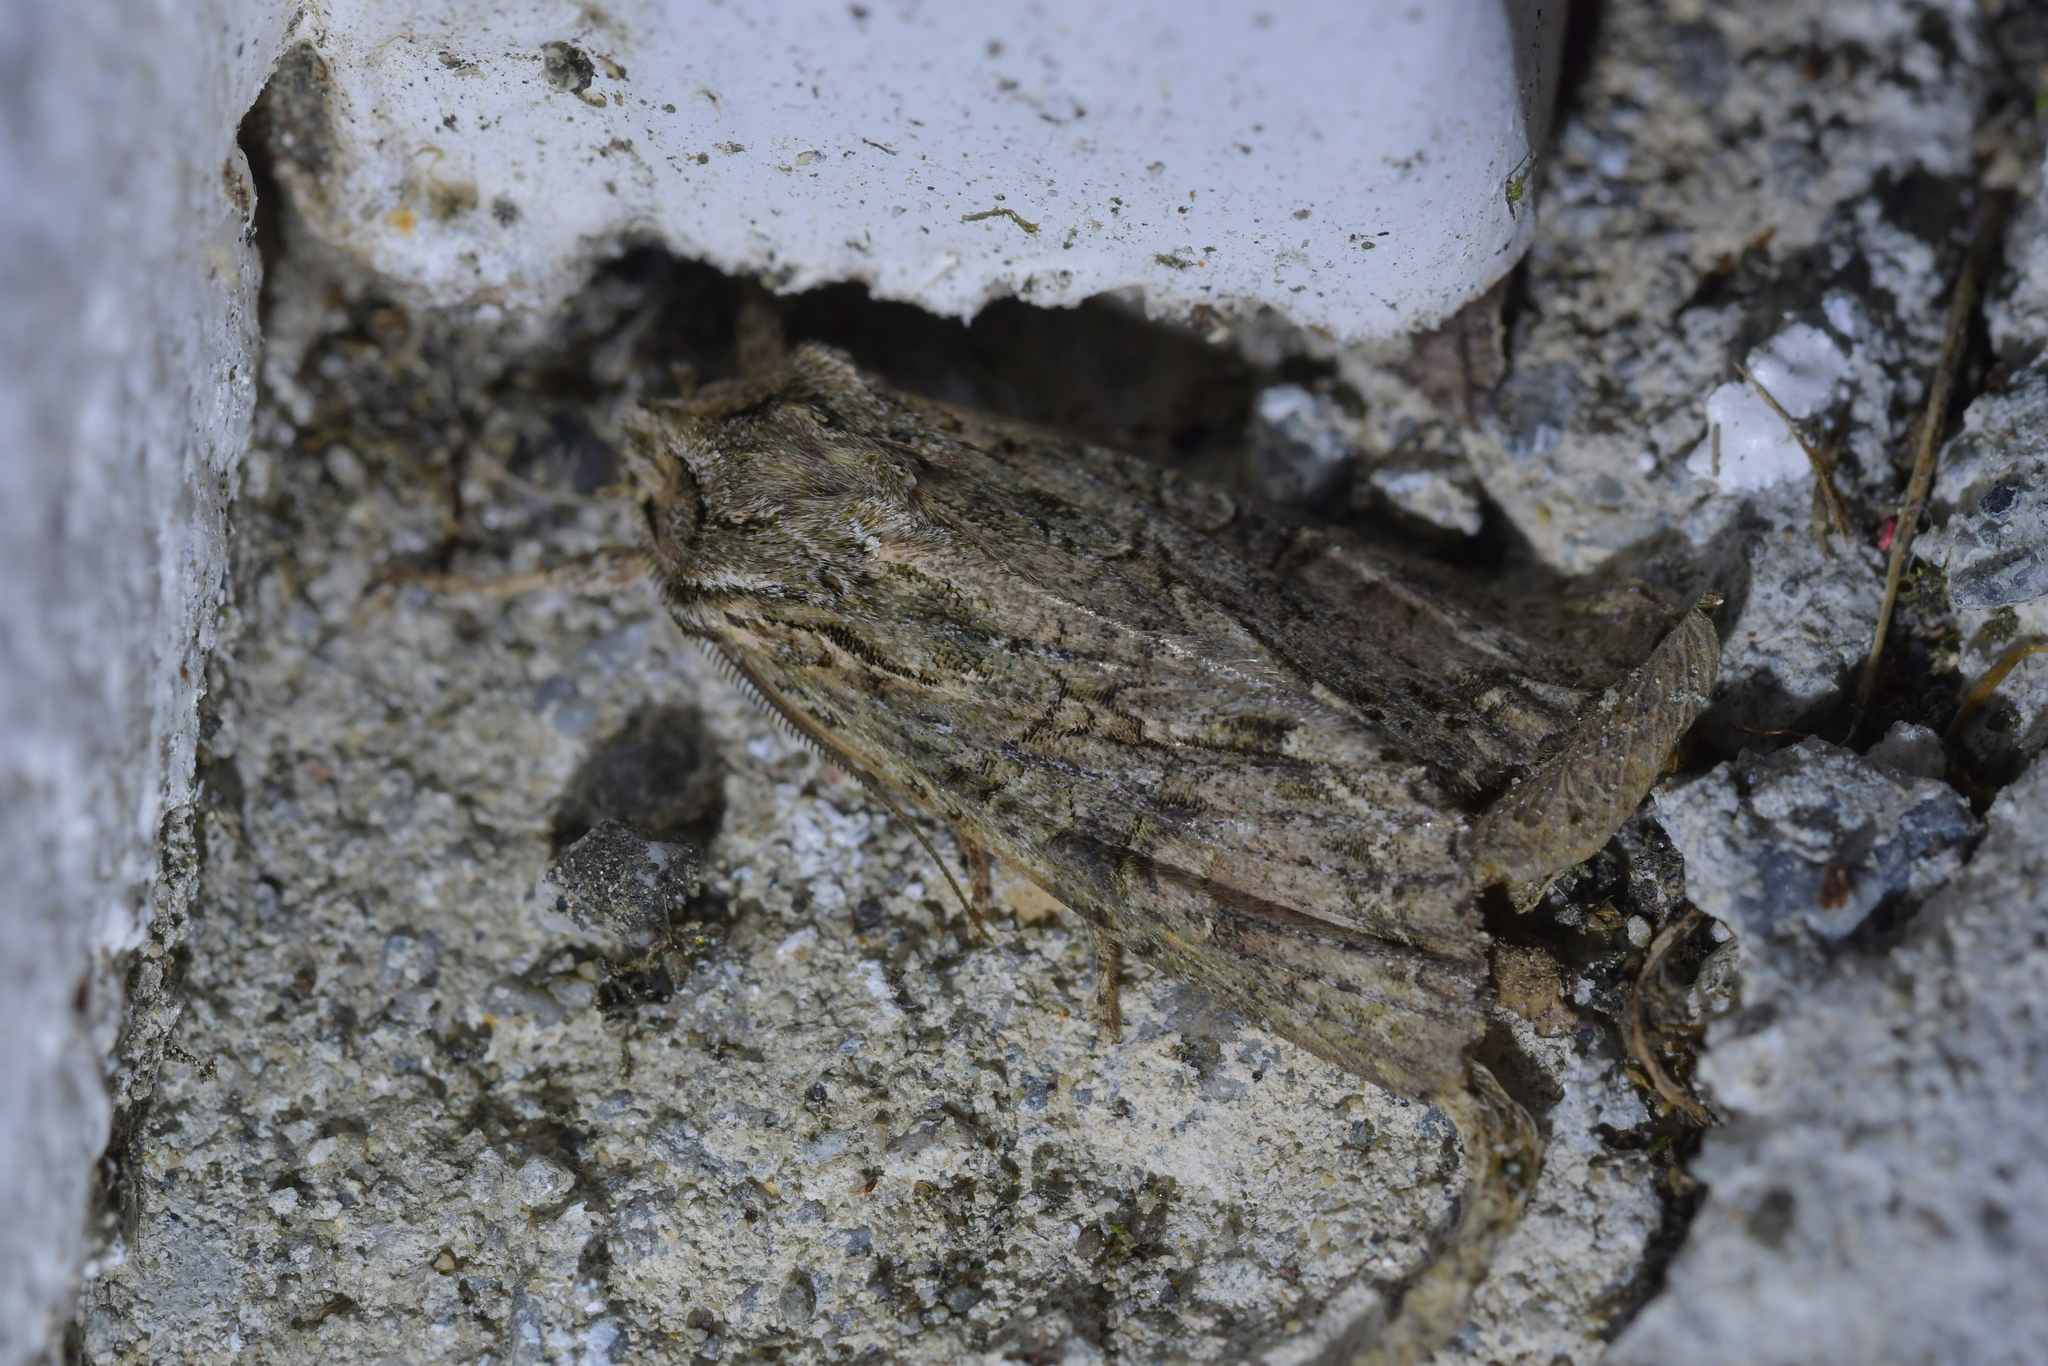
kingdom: Animalia
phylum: Arthropoda
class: Insecta
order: Lepidoptera
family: Noctuidae
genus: Ichneutica
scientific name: Ichneutica mutans
